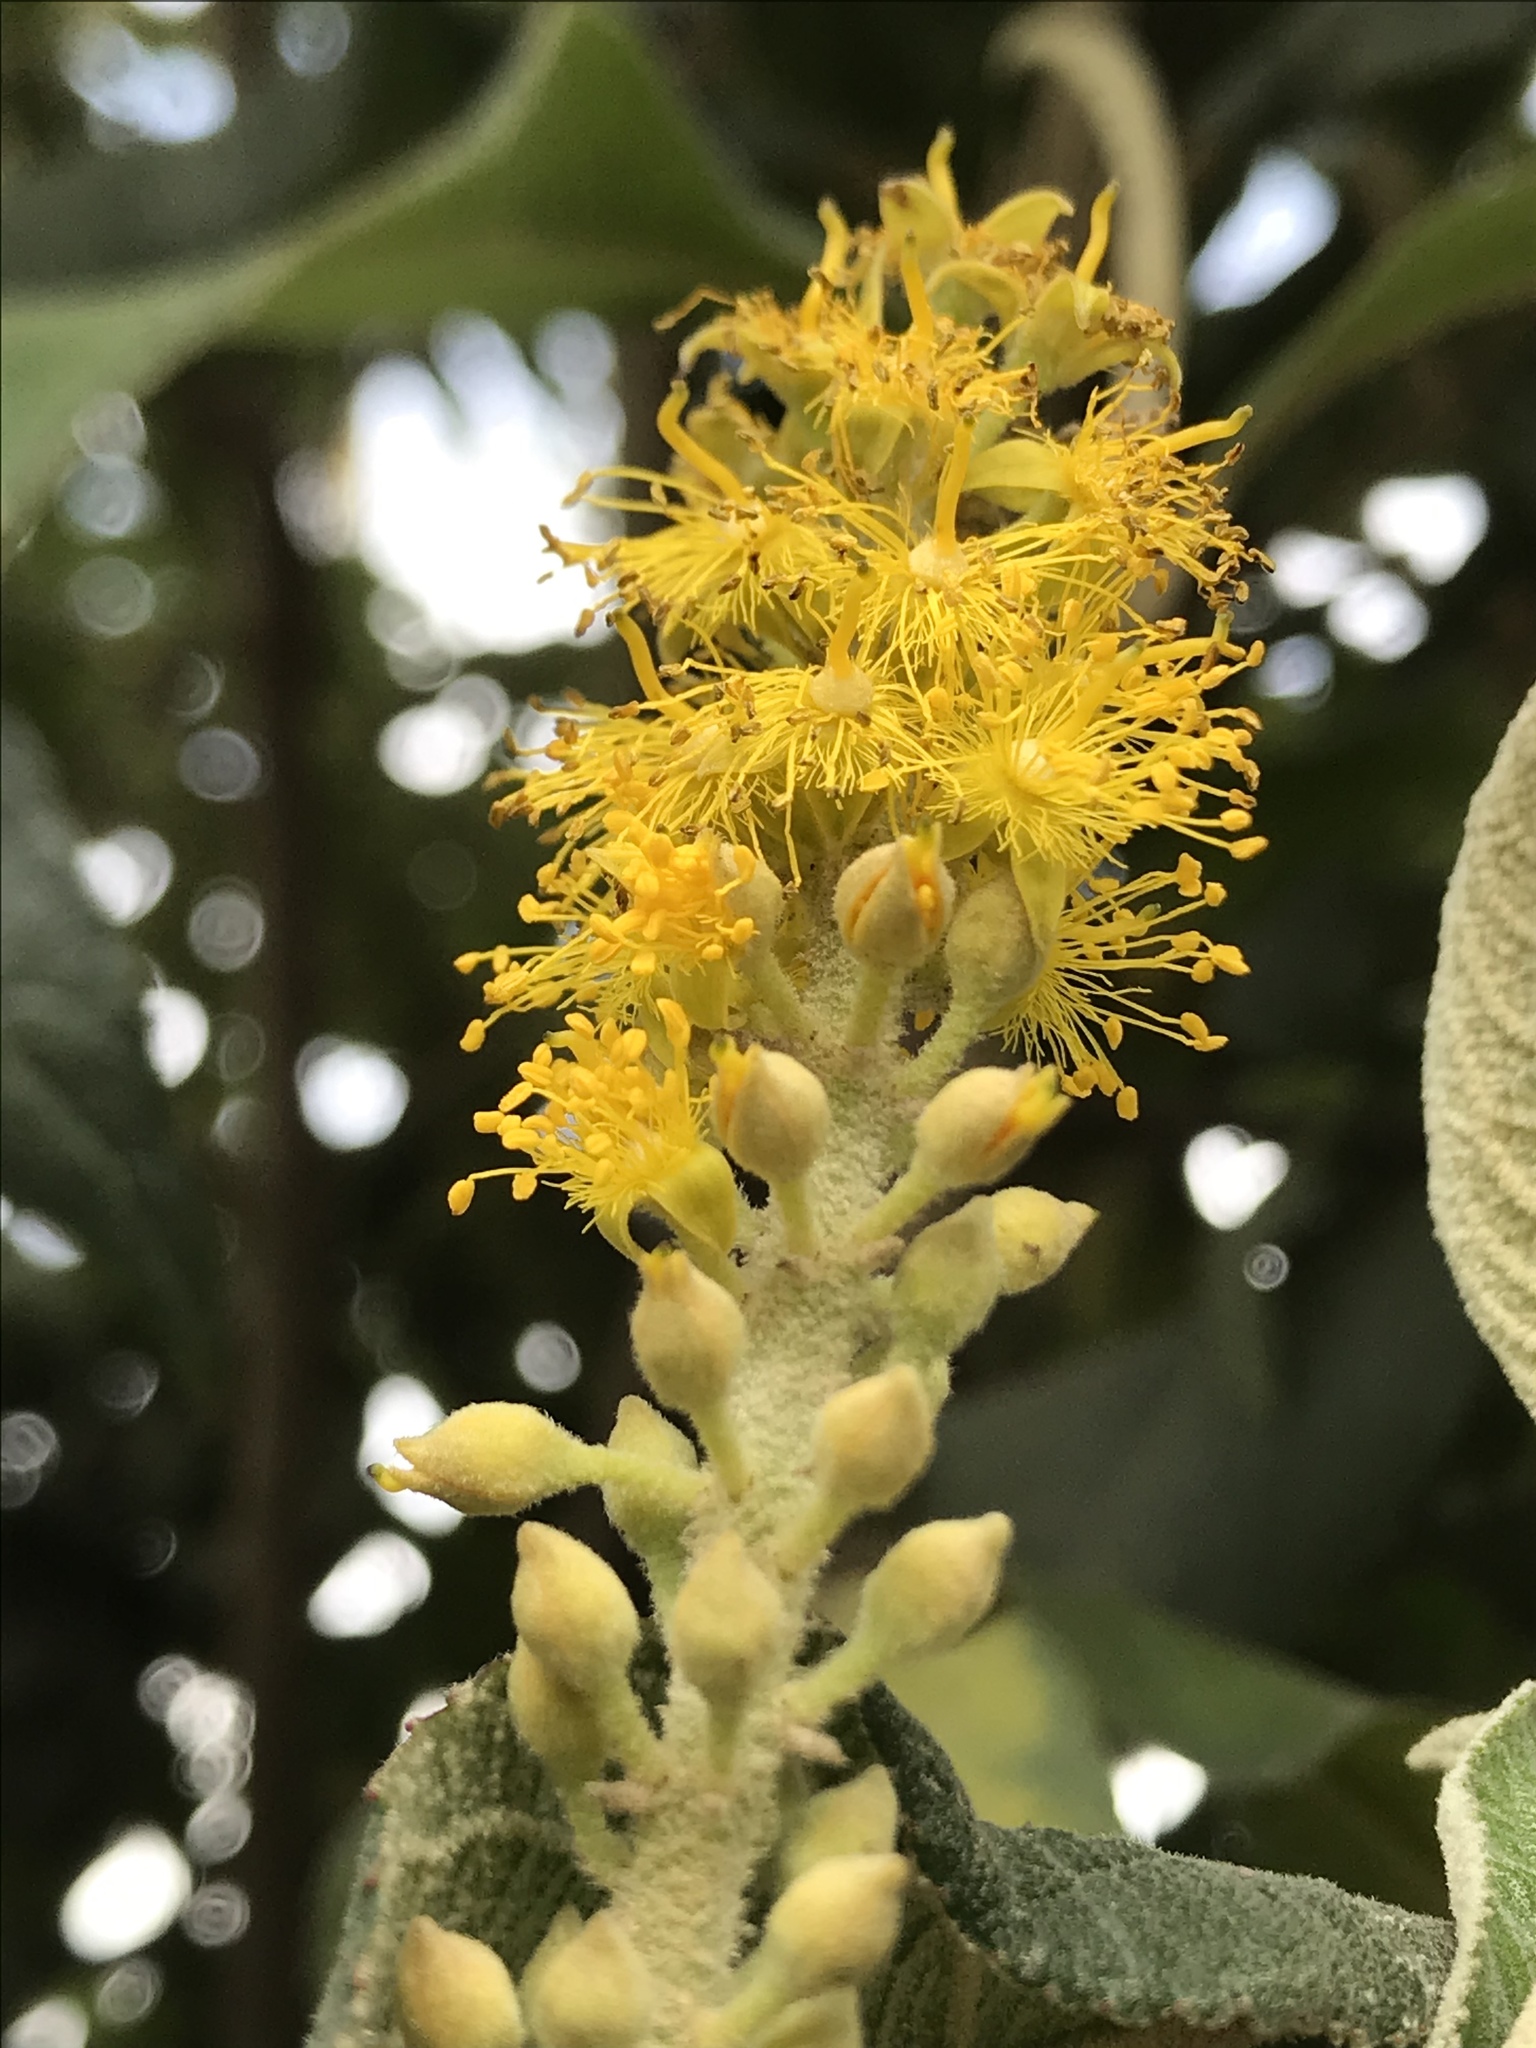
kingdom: Plantae
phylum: Tracheophyta
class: Magnoliopsida
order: Malpighiales
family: Salicaceae
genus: Abatia
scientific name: Abatia parviflora
